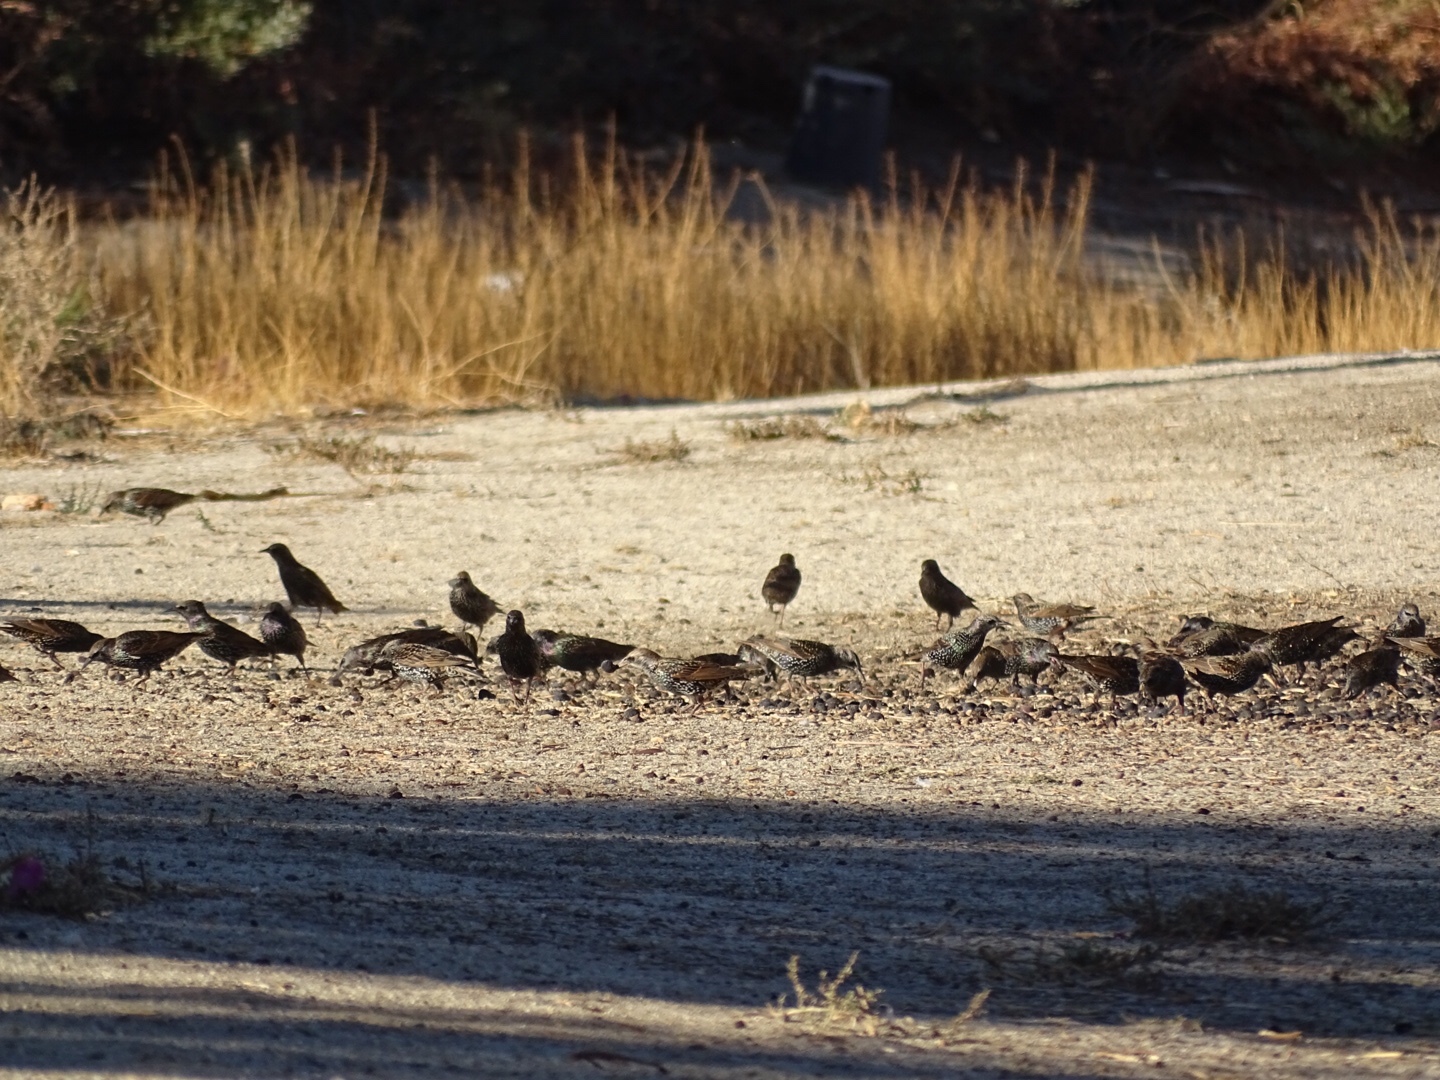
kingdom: Animalia
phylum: Chordata
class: Aves
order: Passeriformes
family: Sturnidae
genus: Sturnus
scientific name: Sturnus vulgaris
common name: Common starling
